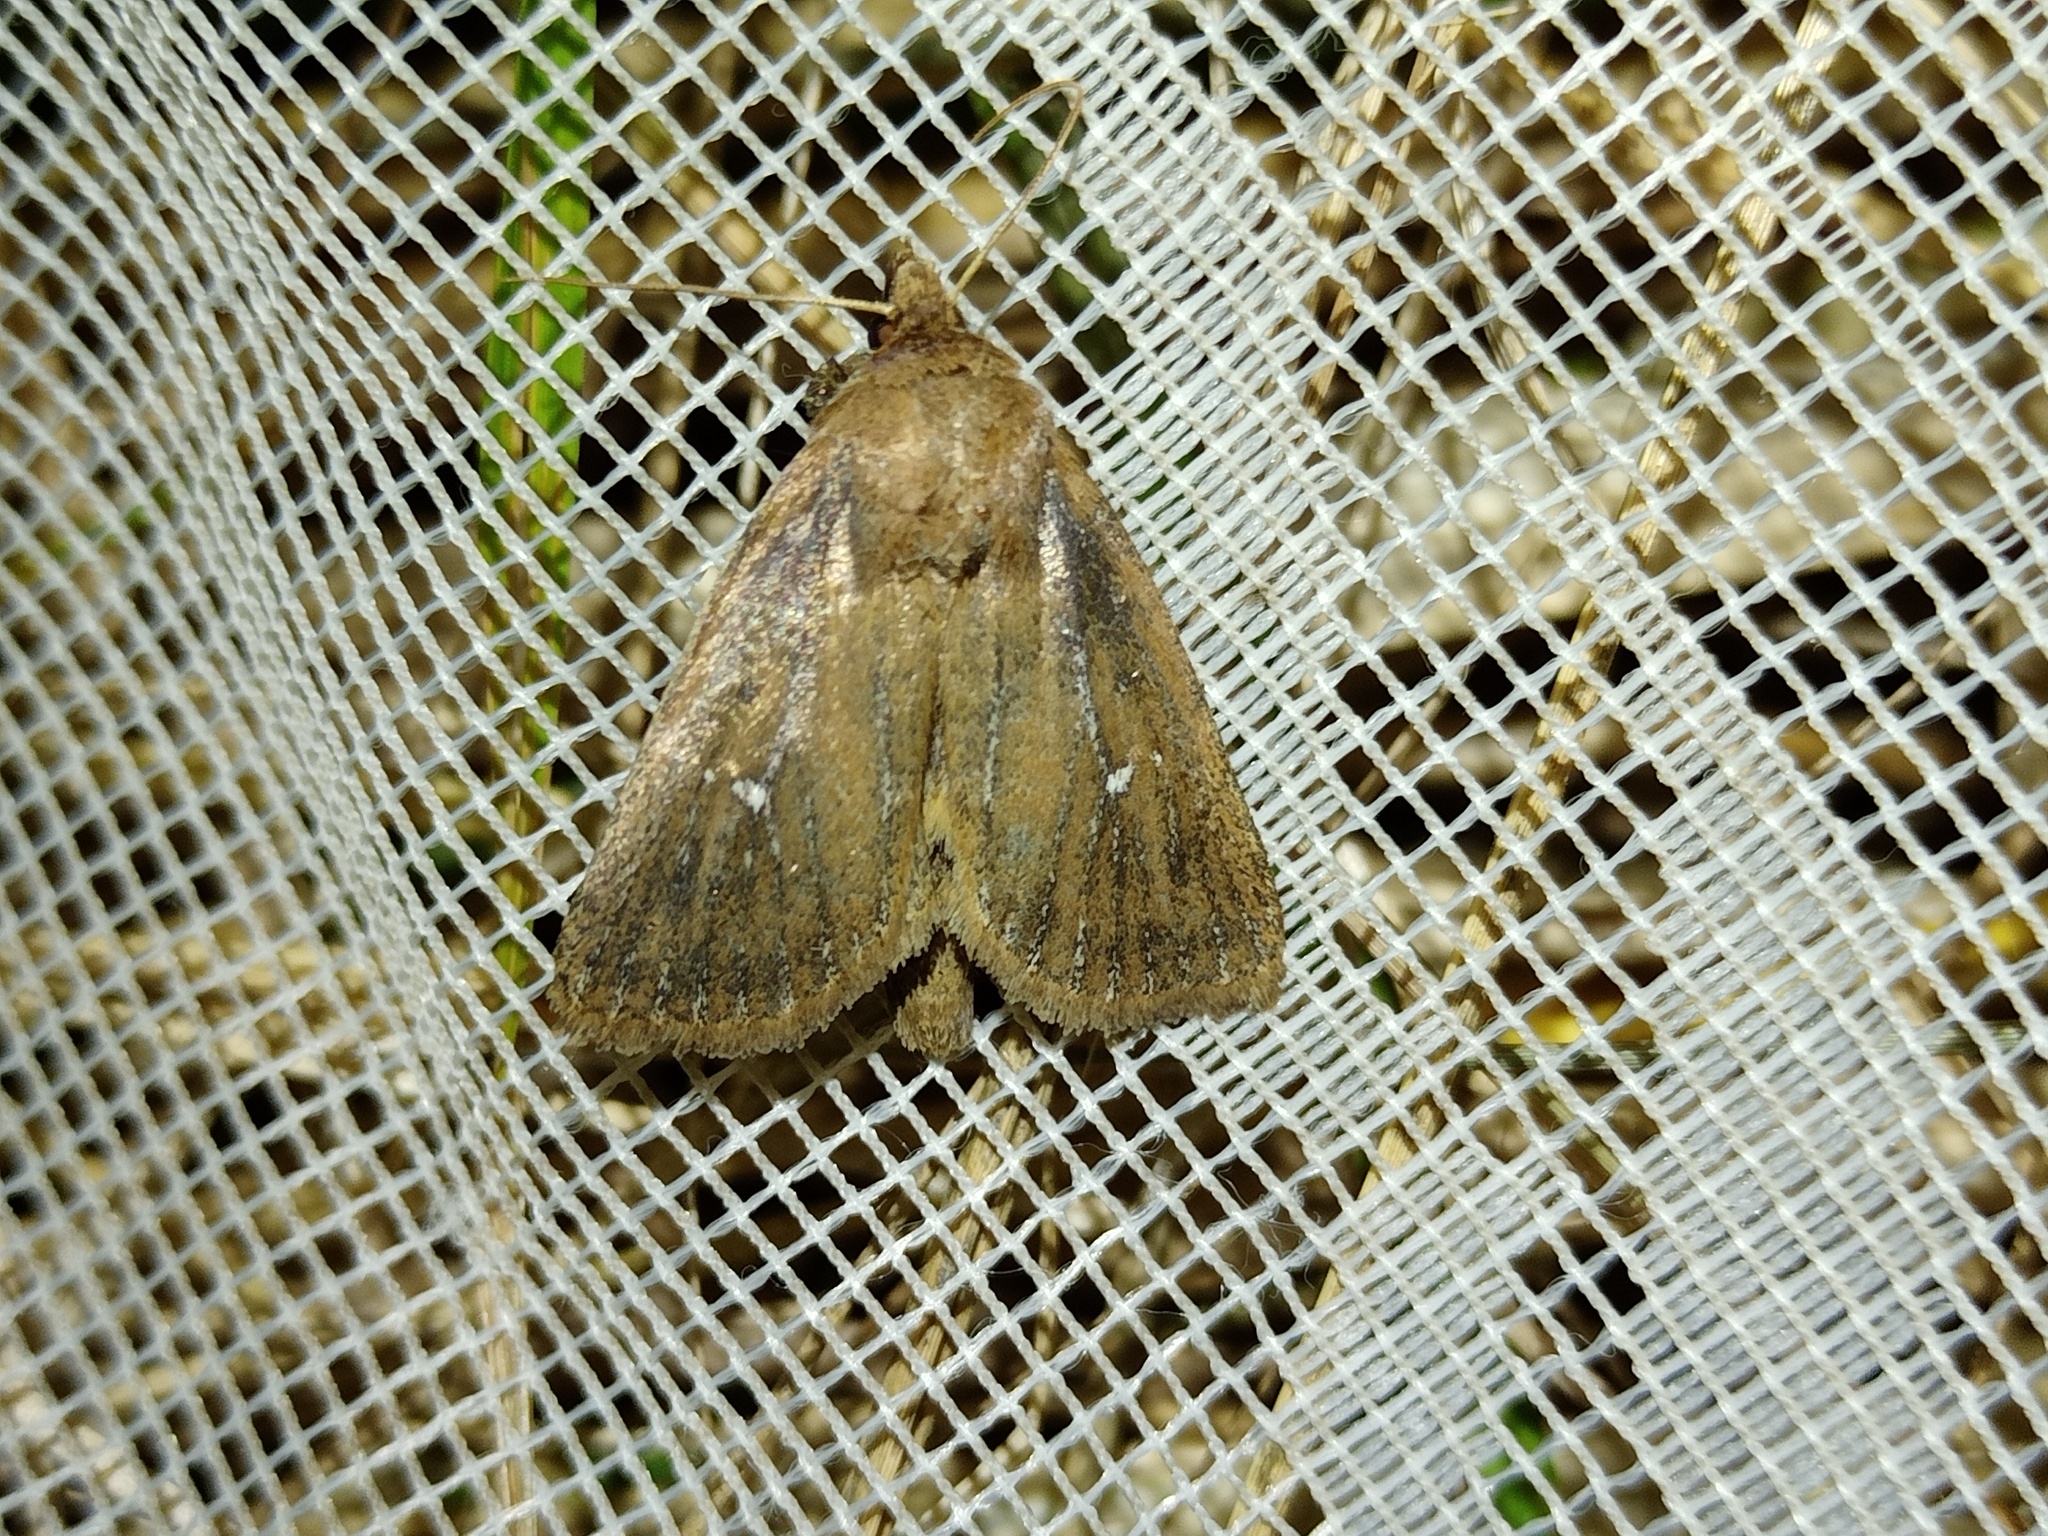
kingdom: Animalia
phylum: Arthropoda
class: Insecta
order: Lepidoptera
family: Noctuidae
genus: Lenisa
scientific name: Lenisa geminipuncta
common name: Twin-spotted wainscot
